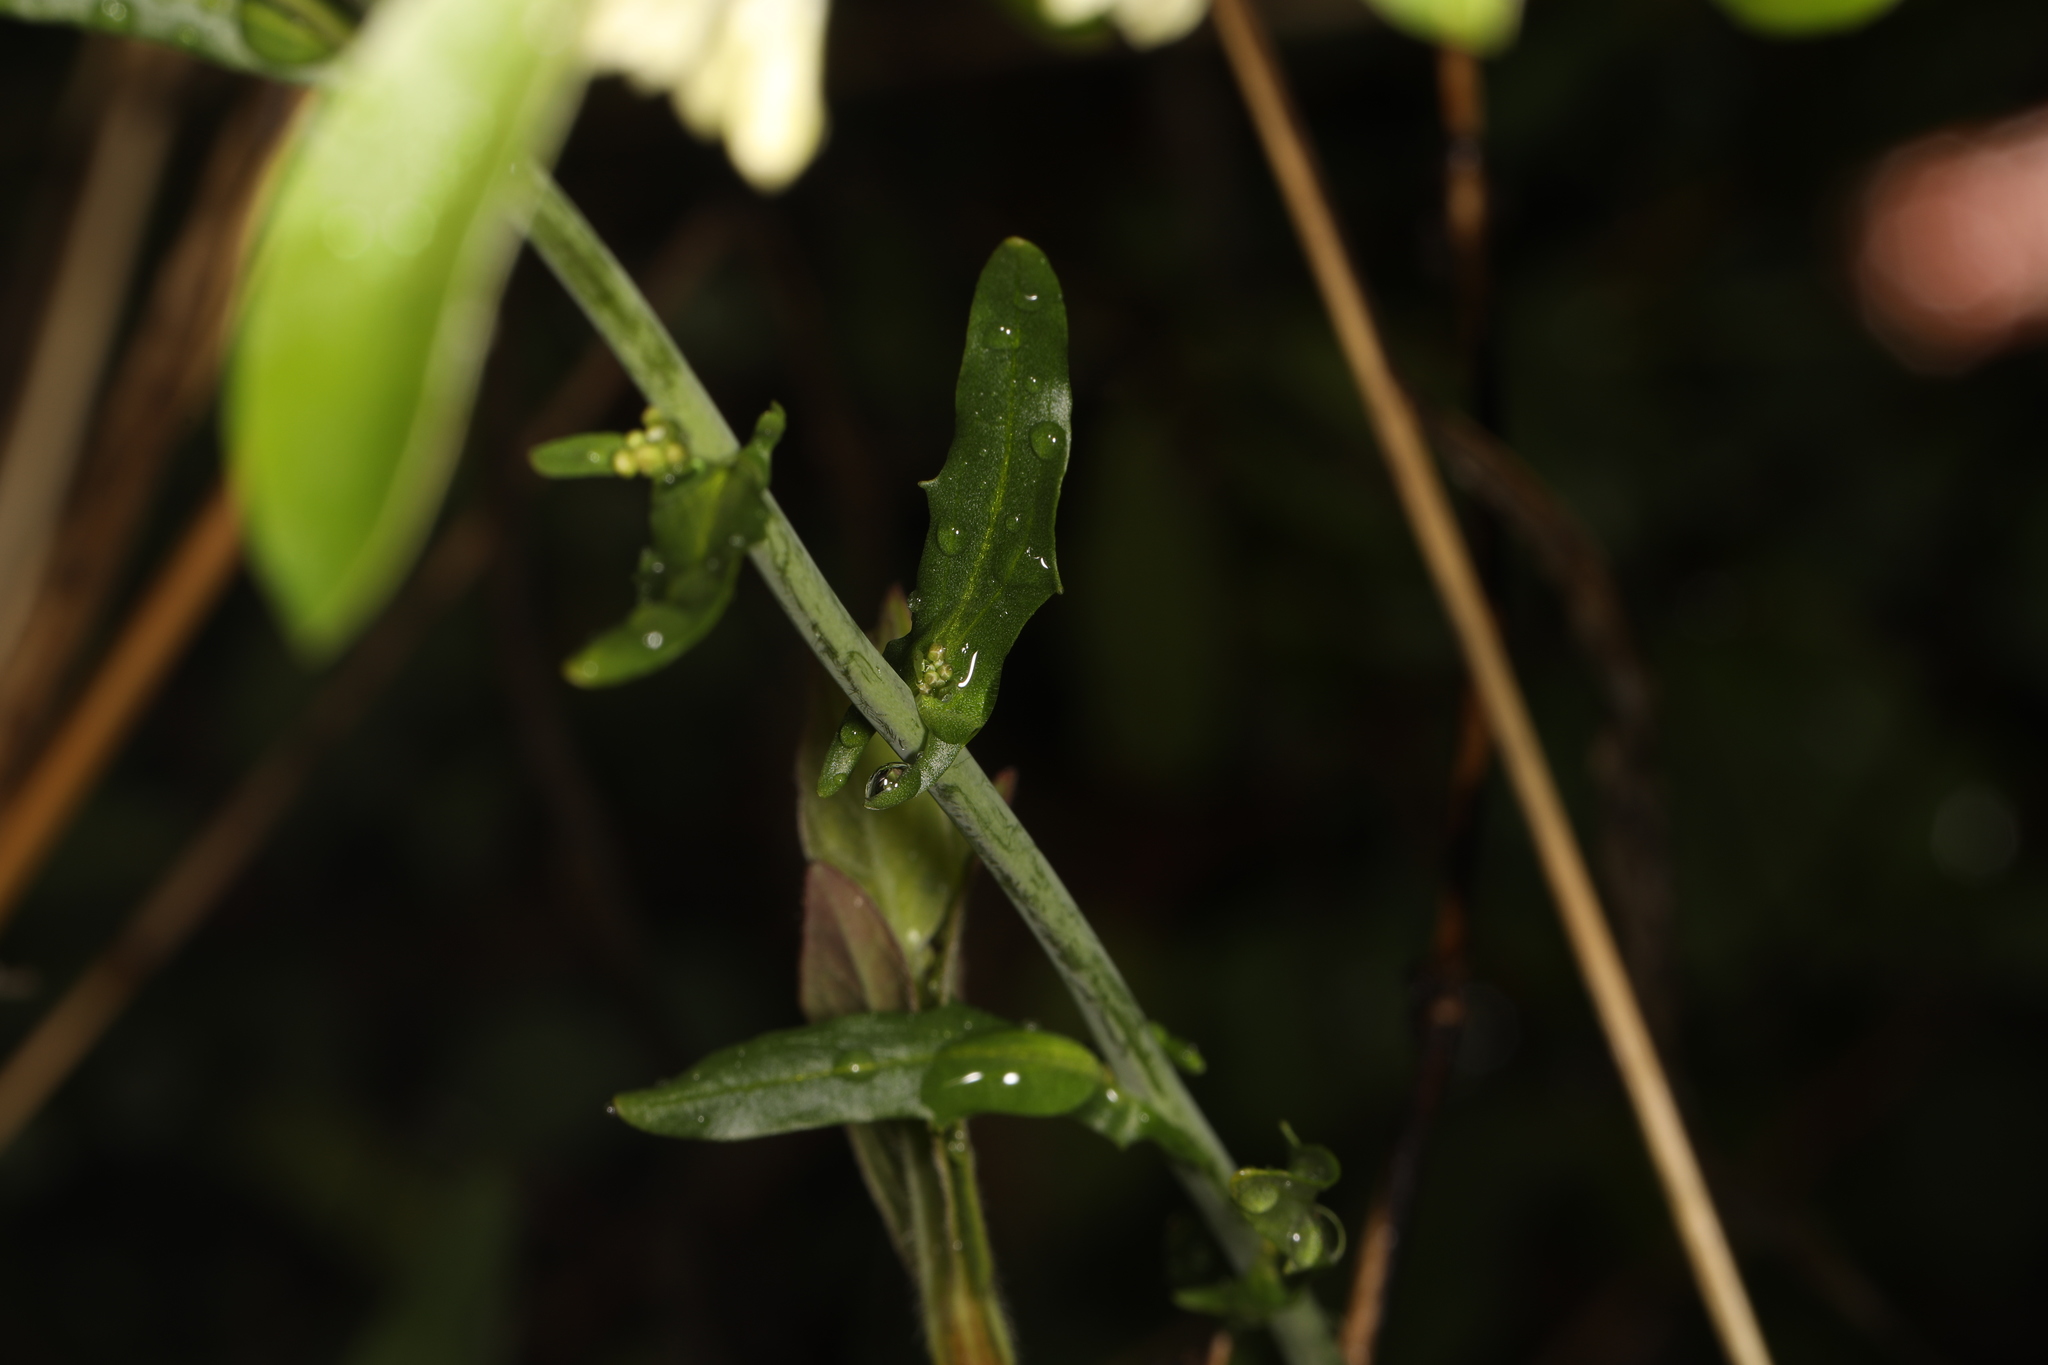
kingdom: Plantae
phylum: Tracheophyta
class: Magnoliopsida
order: Brassicales
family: Brassicaceae
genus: Lepidium
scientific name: Lepidium virginicum
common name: Least pepperwort
